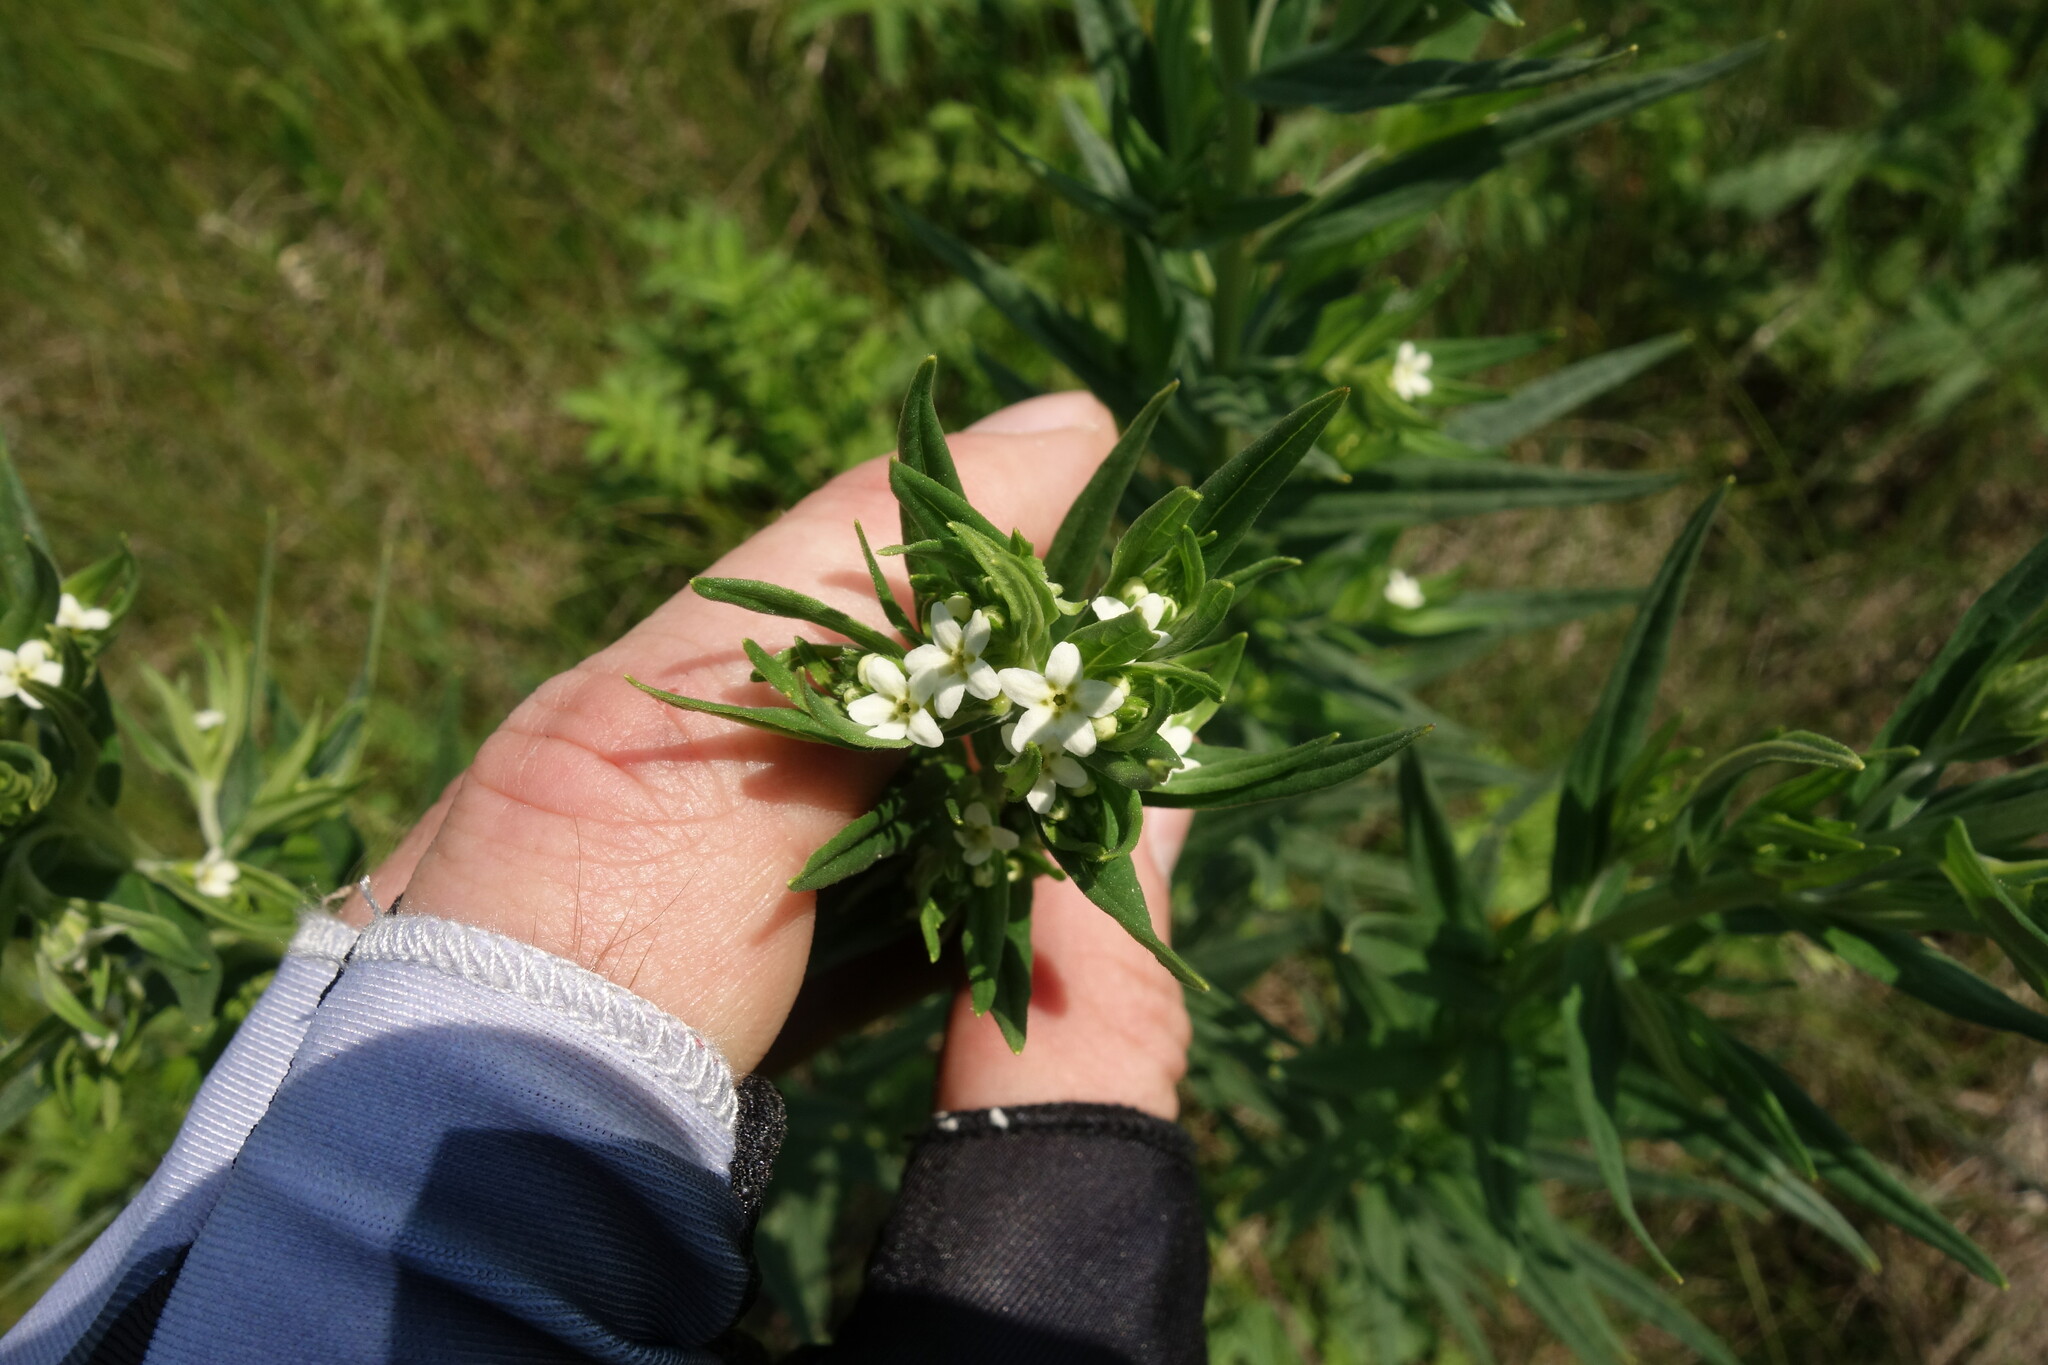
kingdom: Plantae
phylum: Tracheophyta
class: Magnoliopsida
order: Boraginales
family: Boraginaceae
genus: Lithospermum
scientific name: Lithospermum officinale
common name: Common gromwell
